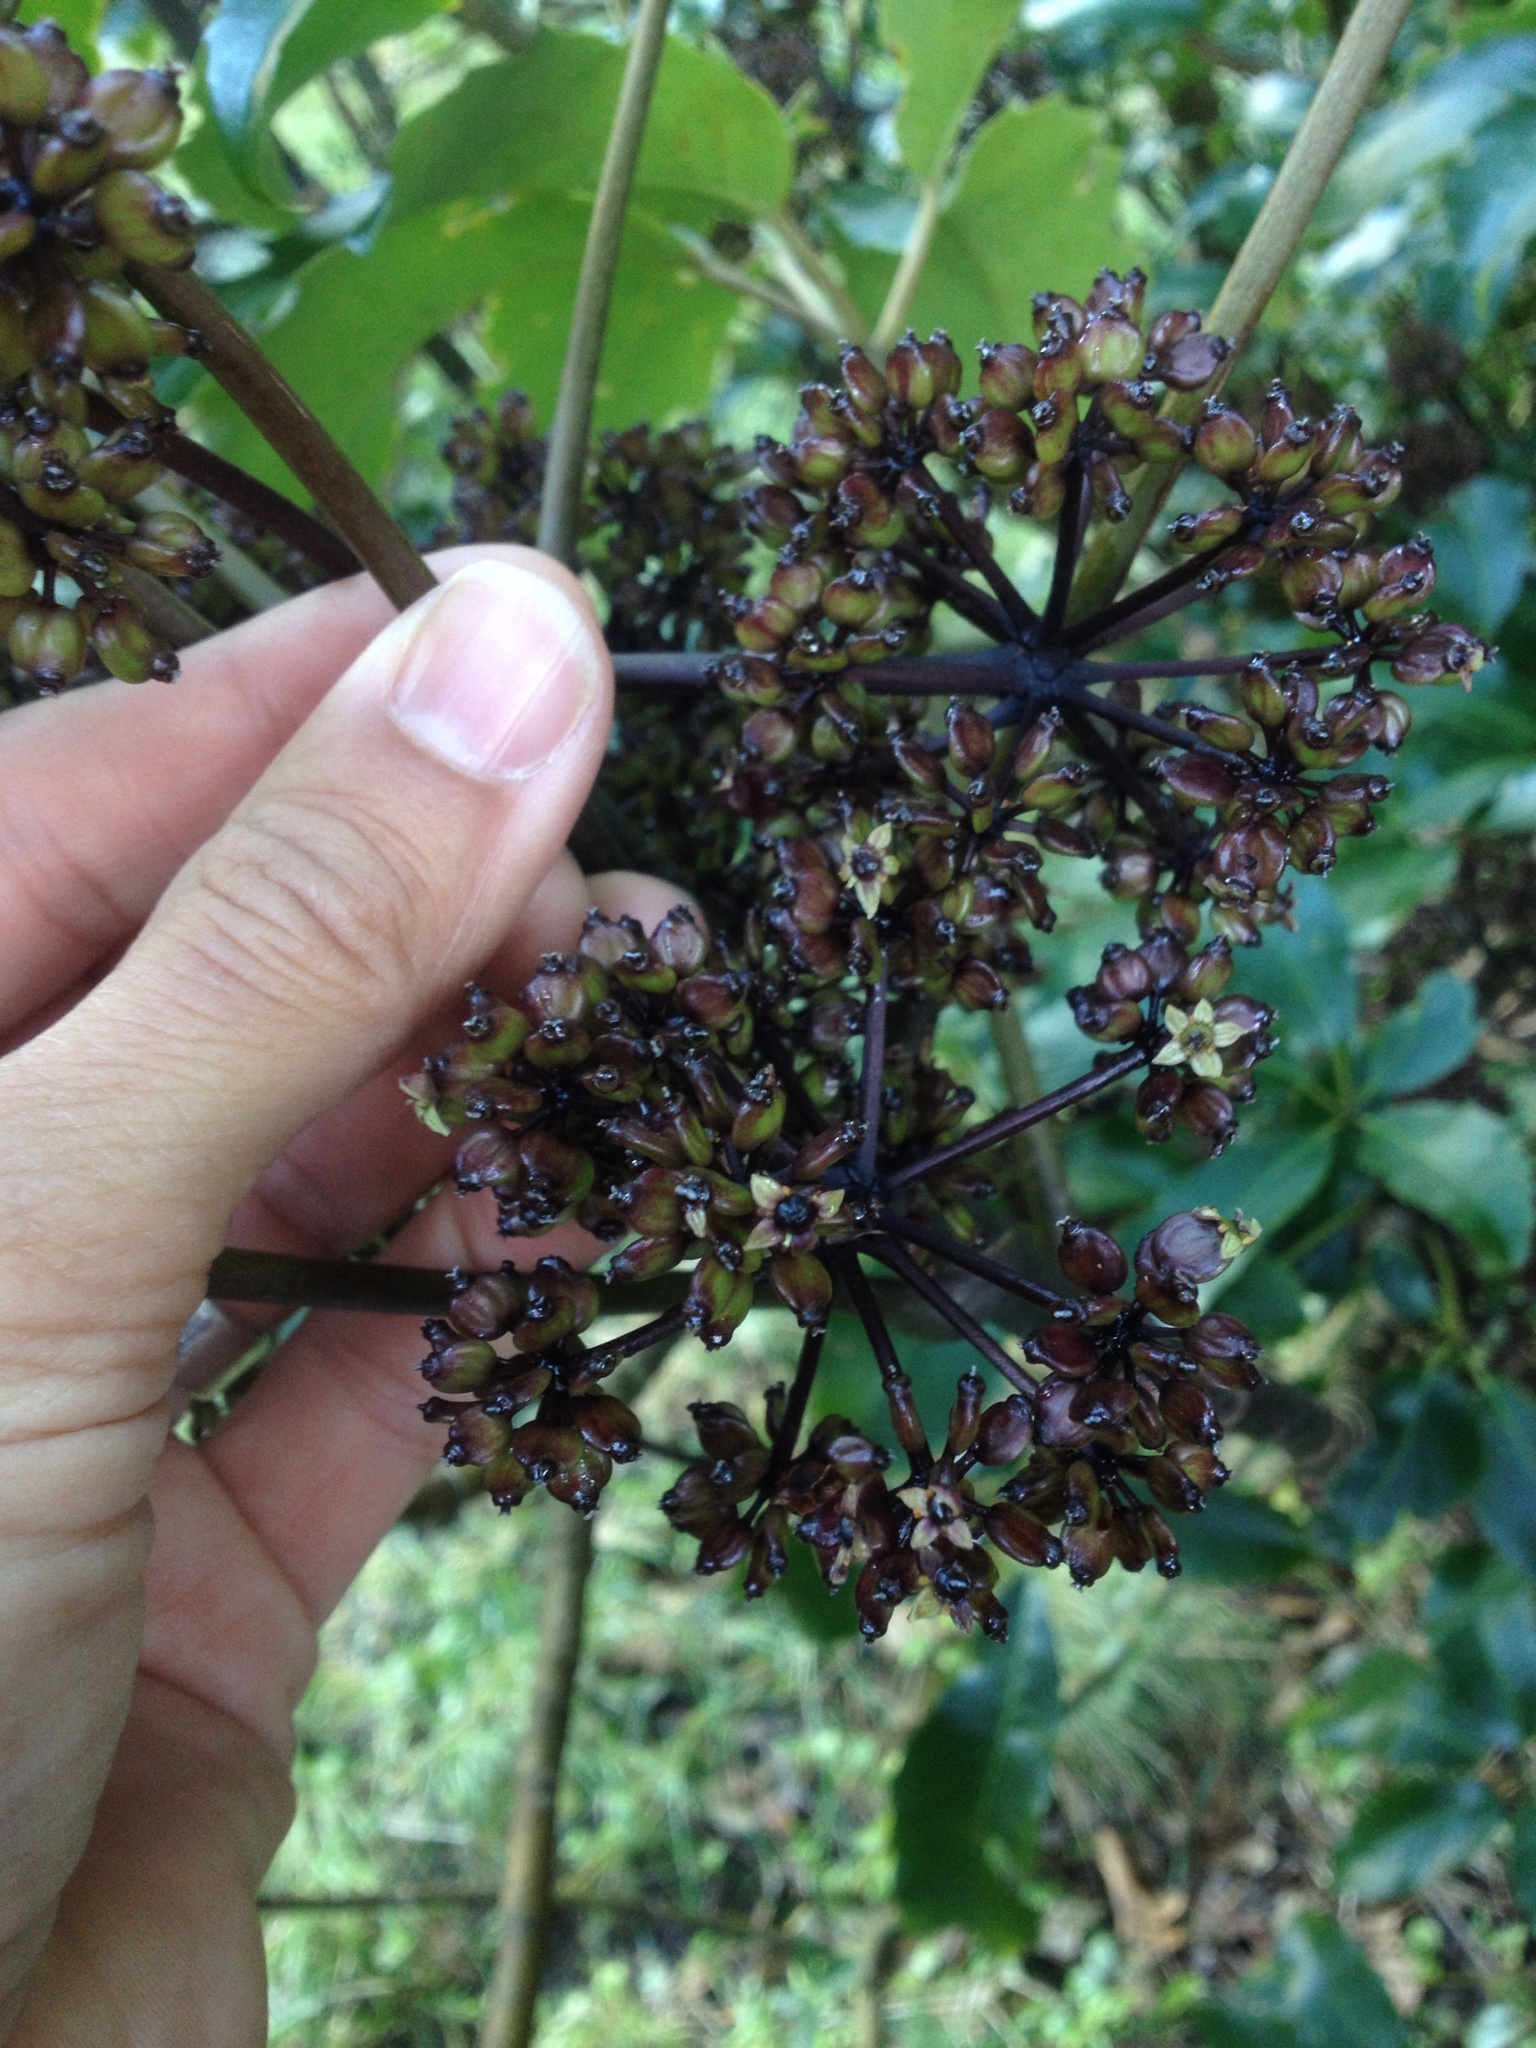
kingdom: Plantae
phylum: Tracheophyta
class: Magnoliopsida
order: Apiales
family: Araliaceae
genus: Neopanax
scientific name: Neopanax arboreus
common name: Five-fingers
